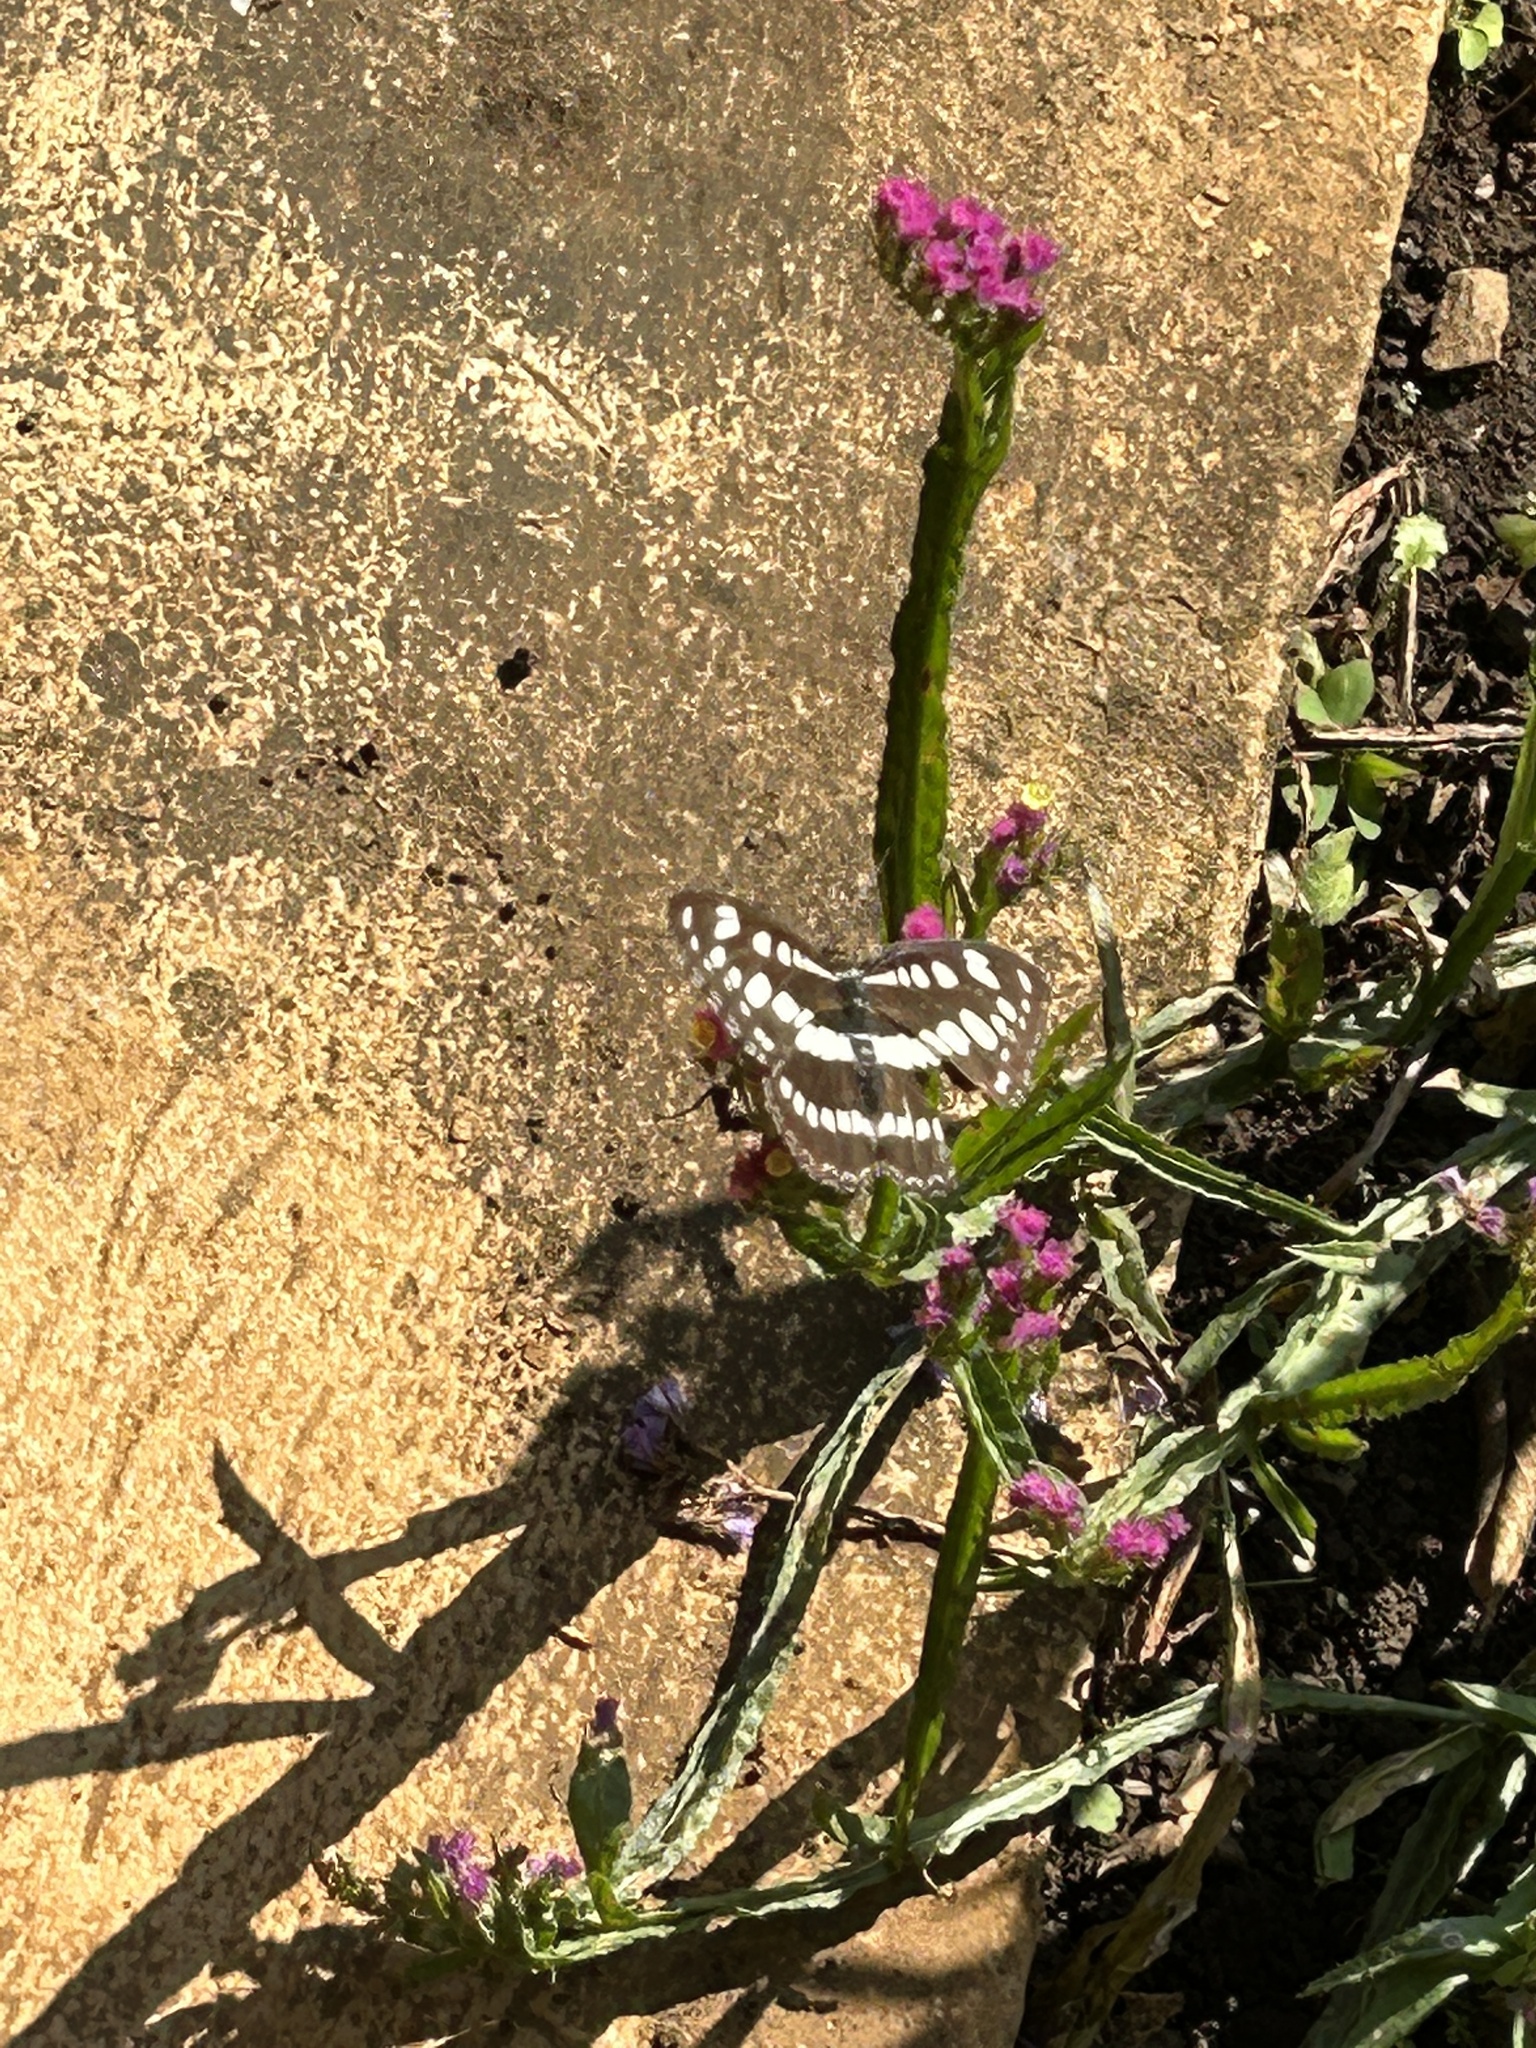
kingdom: Animalia
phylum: Arthropoda
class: Insecta
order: Lepidoptera
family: Nymphalidae
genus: Parathyma
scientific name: Parathyma perius
